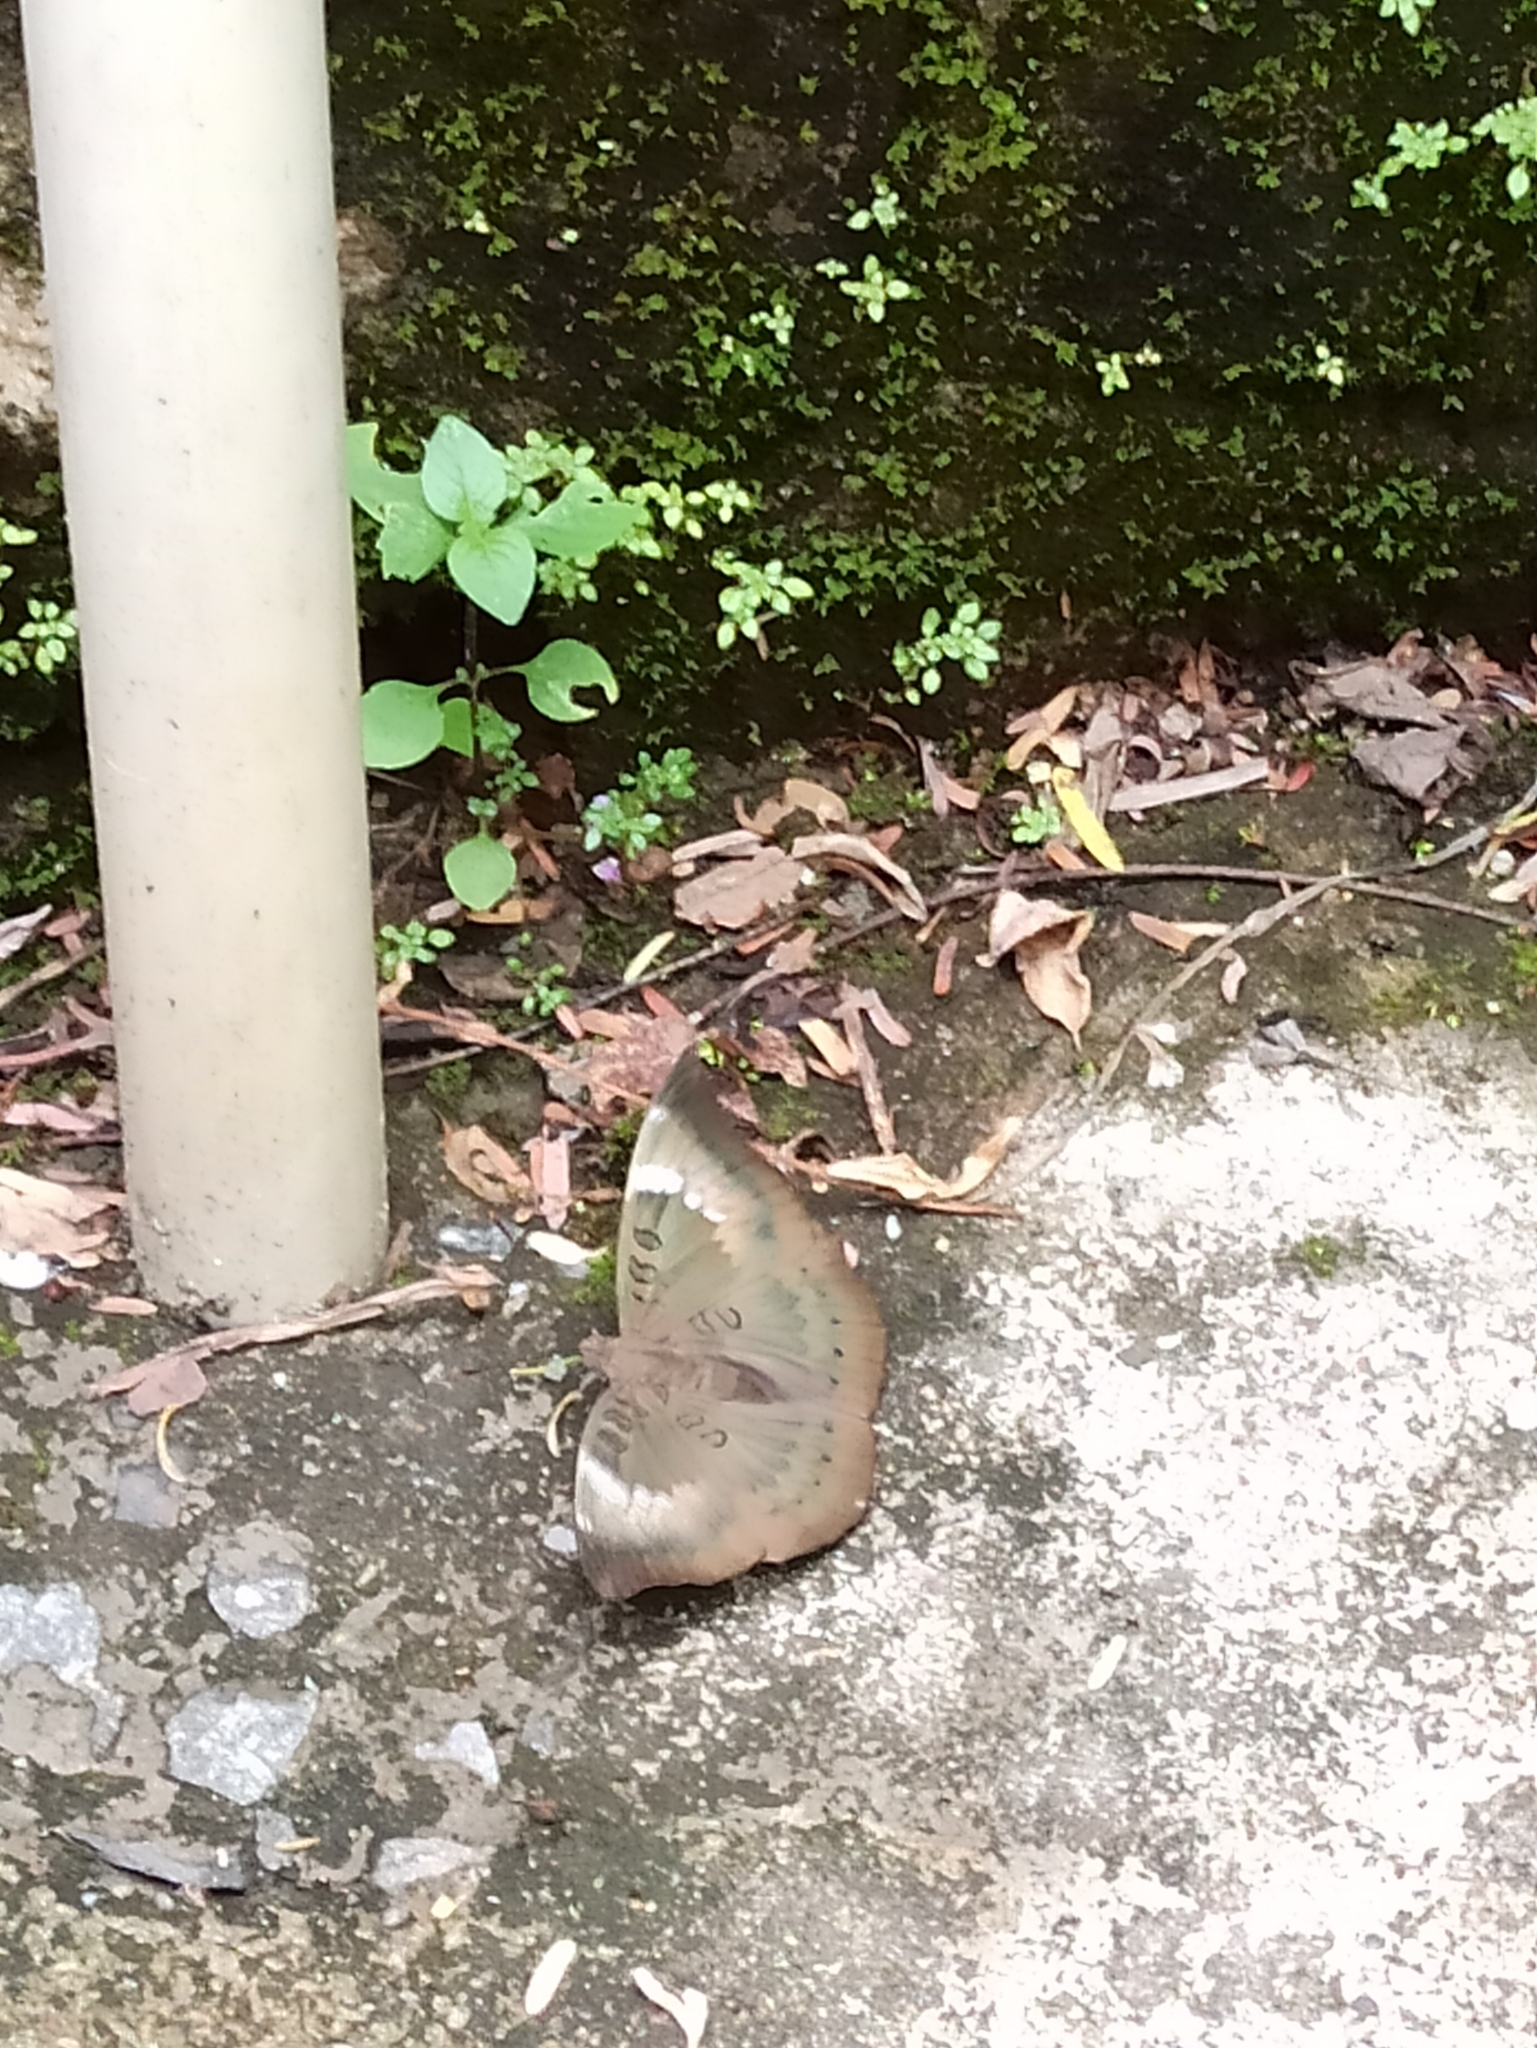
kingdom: Animalia
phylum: Arthropoda
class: Insecta
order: Lepidoptera
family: Nymphalidae
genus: Euthalia
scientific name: Euthalia aconthea
